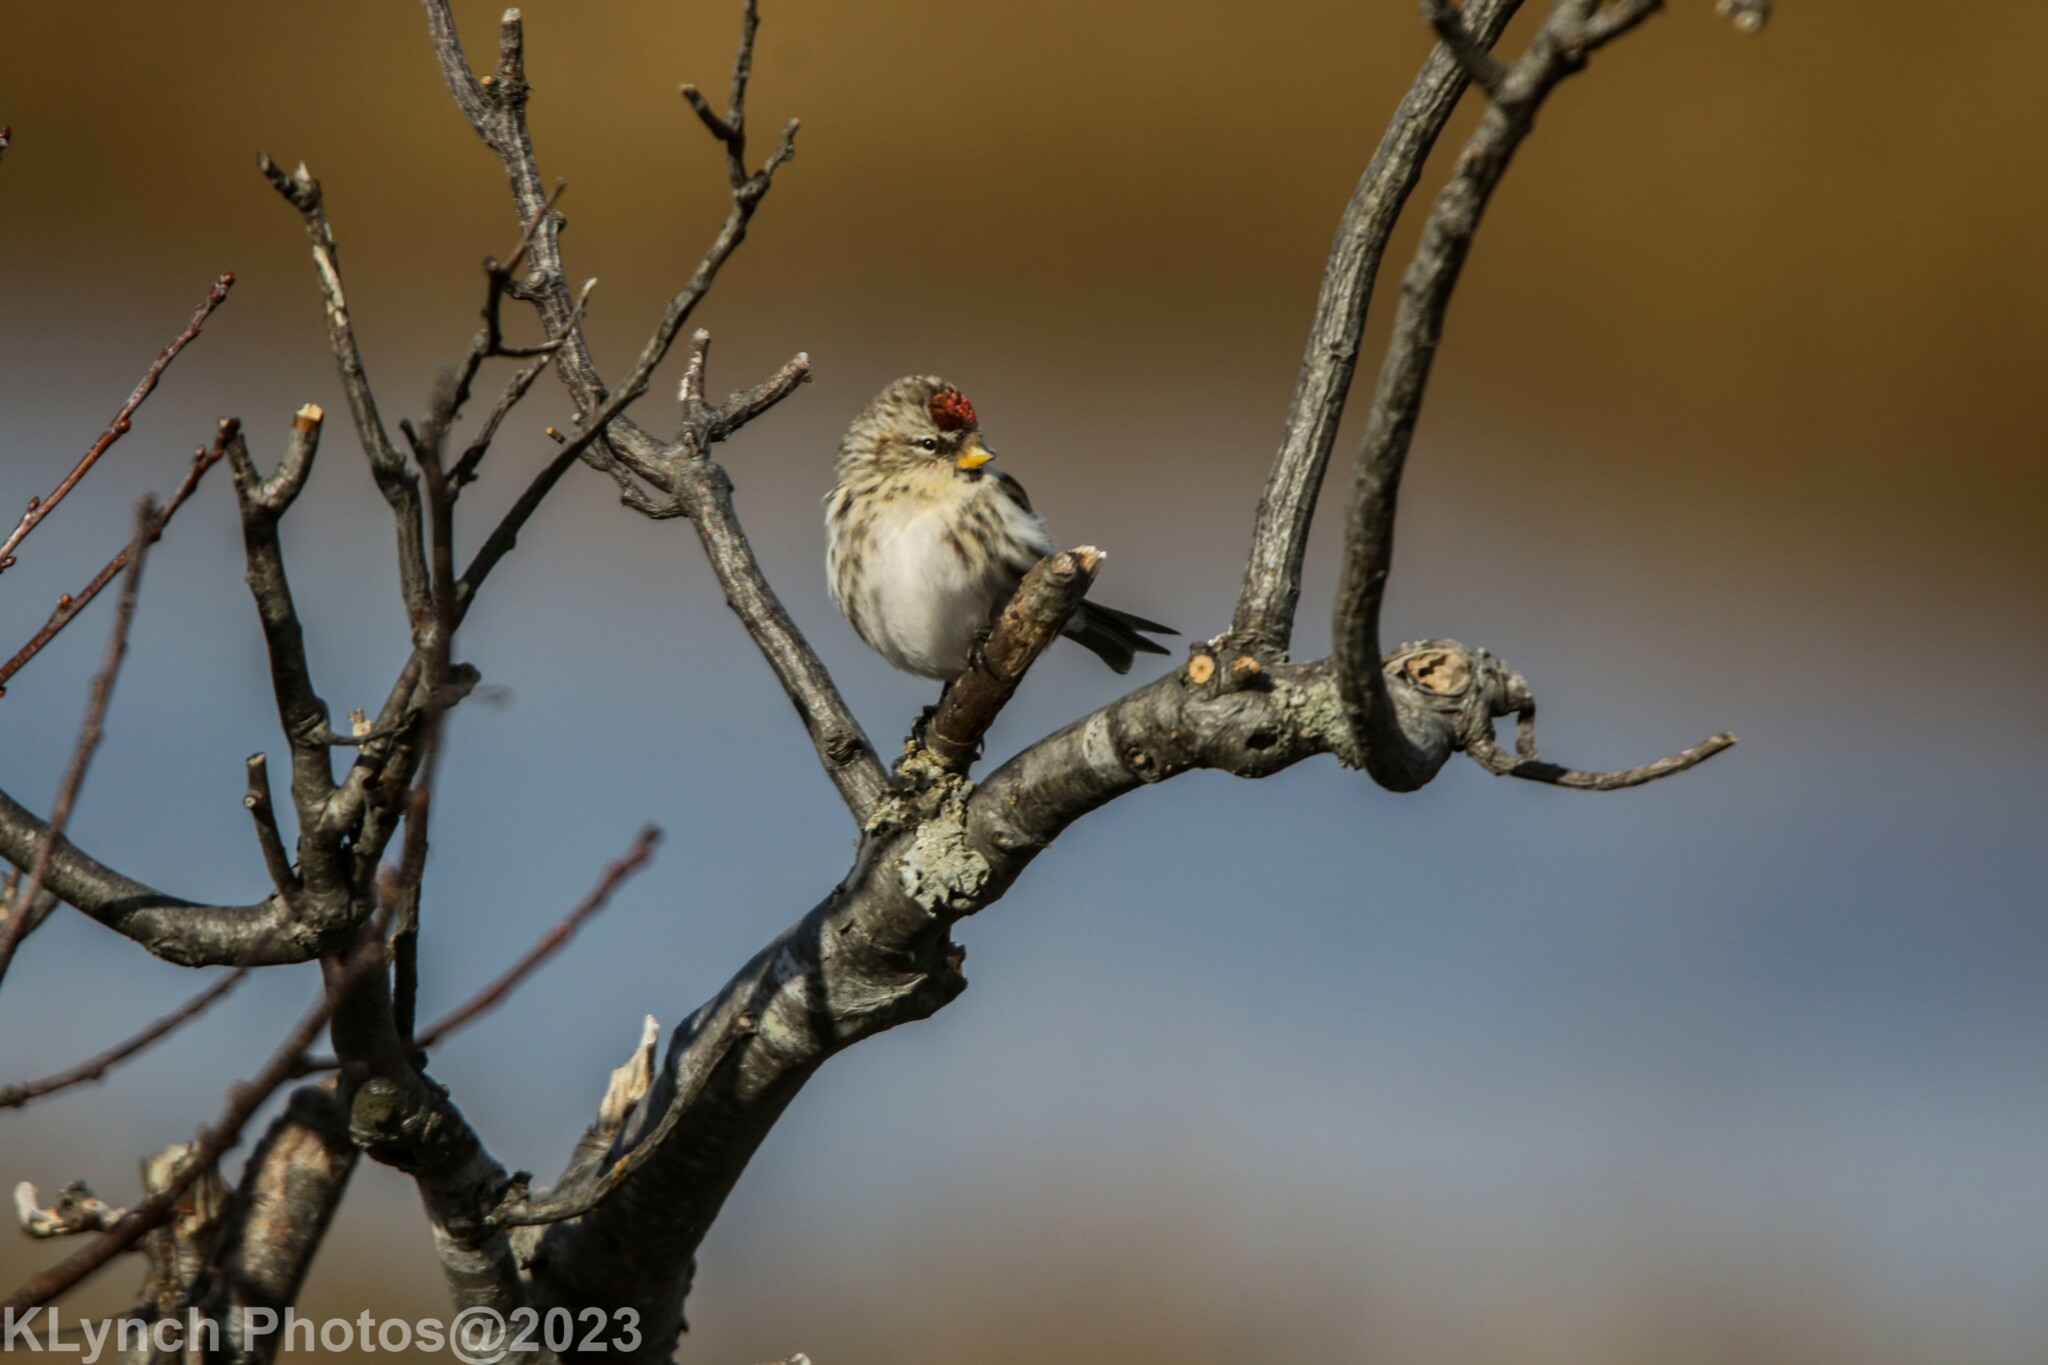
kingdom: Animalia
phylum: Chordata
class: Aves
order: Passeriformes
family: Fringillidae
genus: Acanthis
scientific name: Acanthis flammea
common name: Common redpoll
